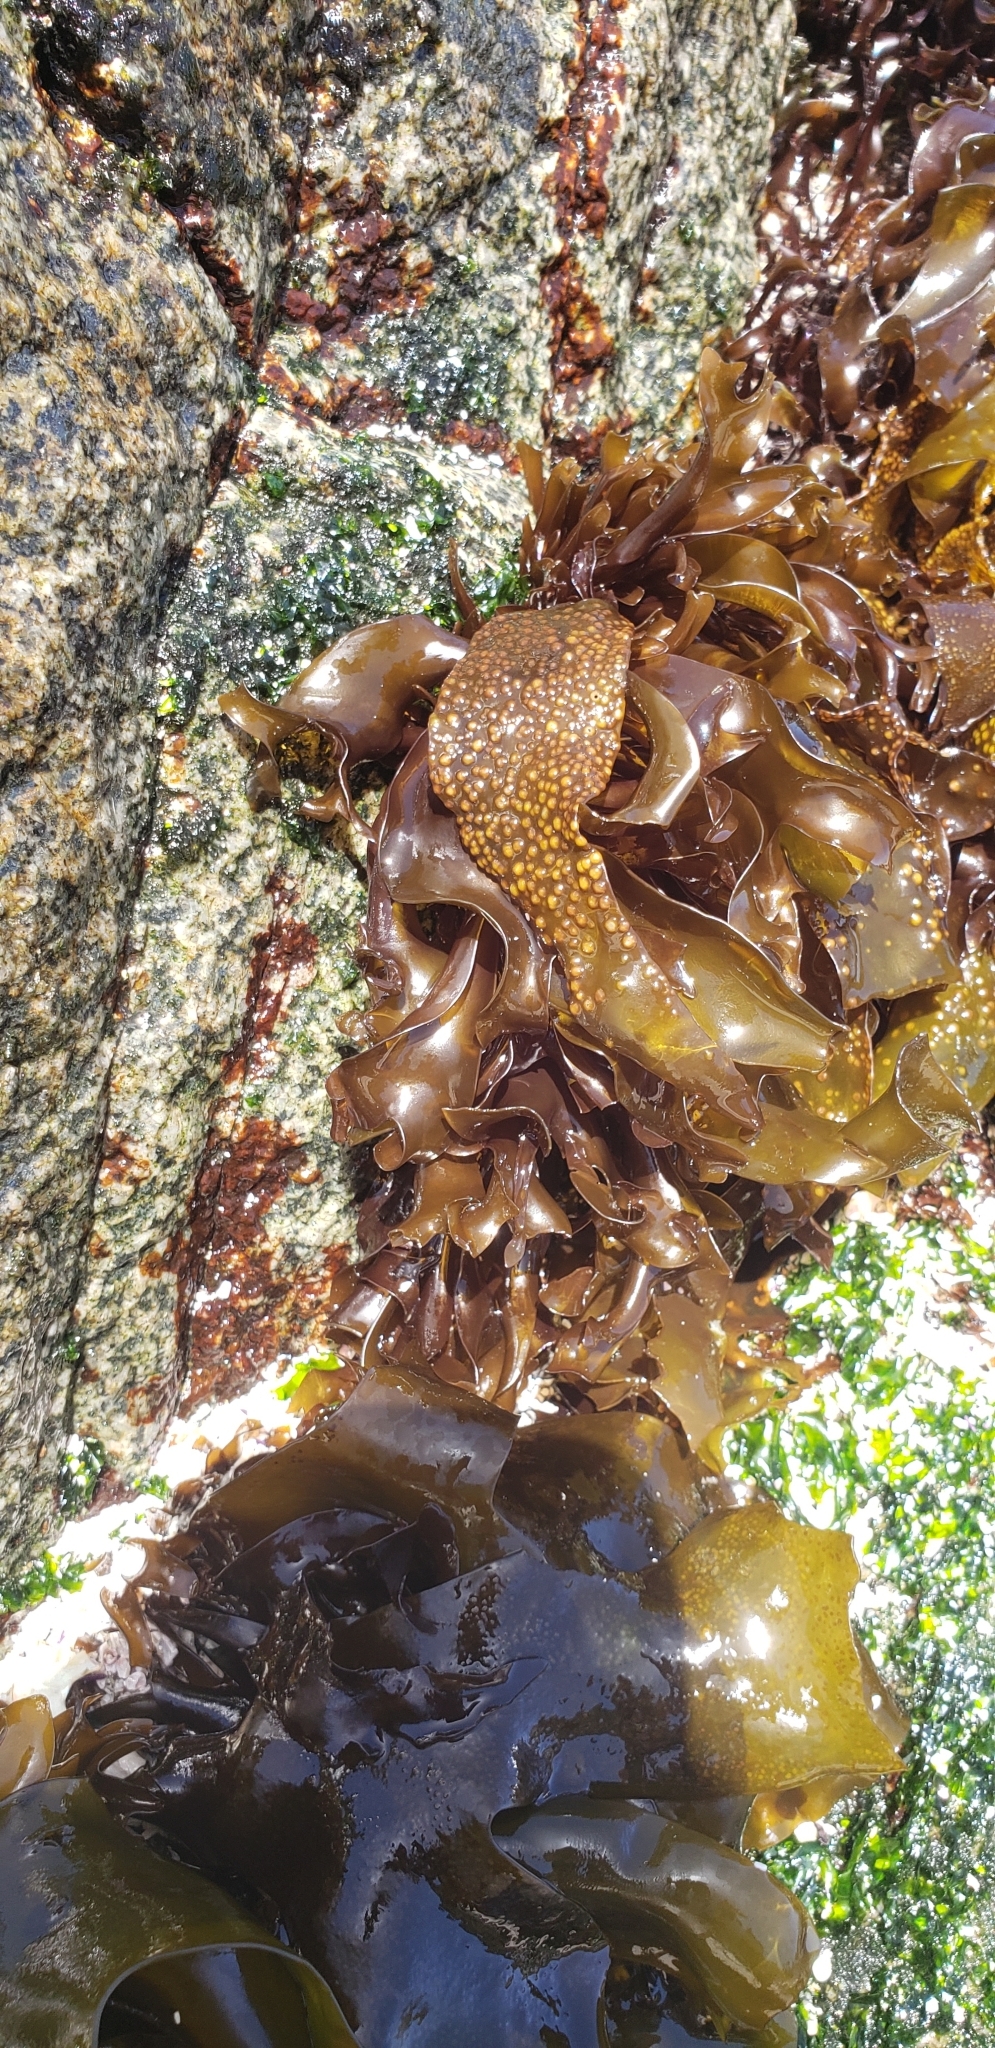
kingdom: Plantae
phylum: Rhodophyta
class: Florideophyceae
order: Gigartinales
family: Gigartinaceae
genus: Mazzaella
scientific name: Mazzaella laminarioides
